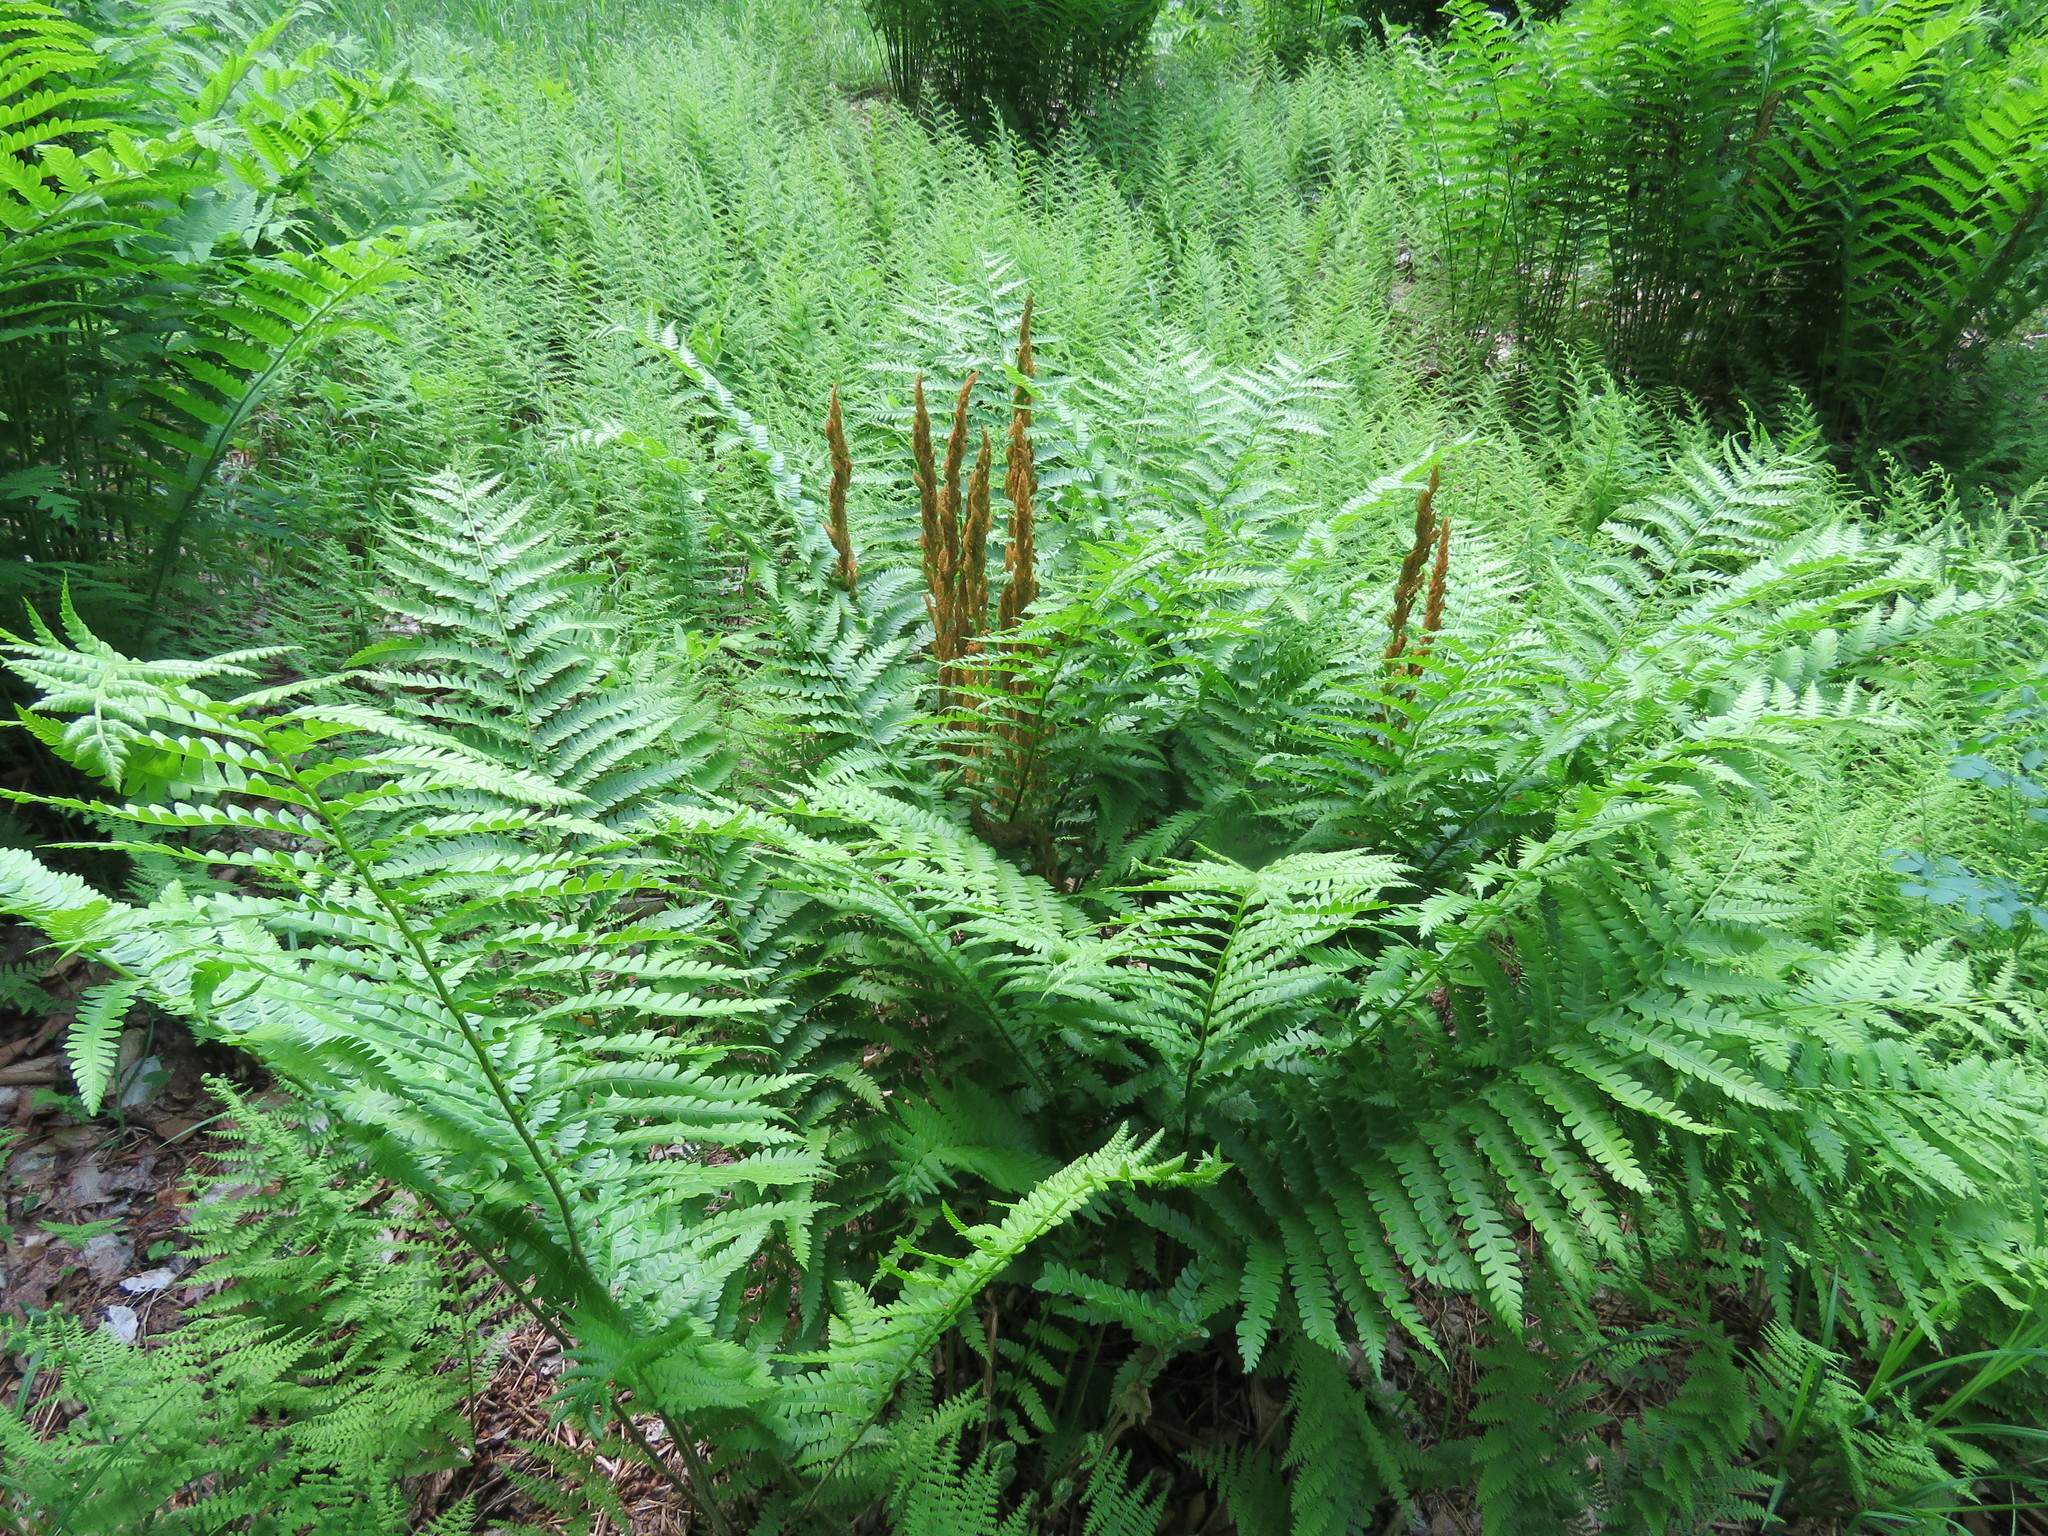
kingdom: Plantae
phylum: Tracheophyta
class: Polypodiopsida
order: Osmundales
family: Osmundaceae
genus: Osmundastrum
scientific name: Osmundastrum cinnamomeum
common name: Cinnamon fern
